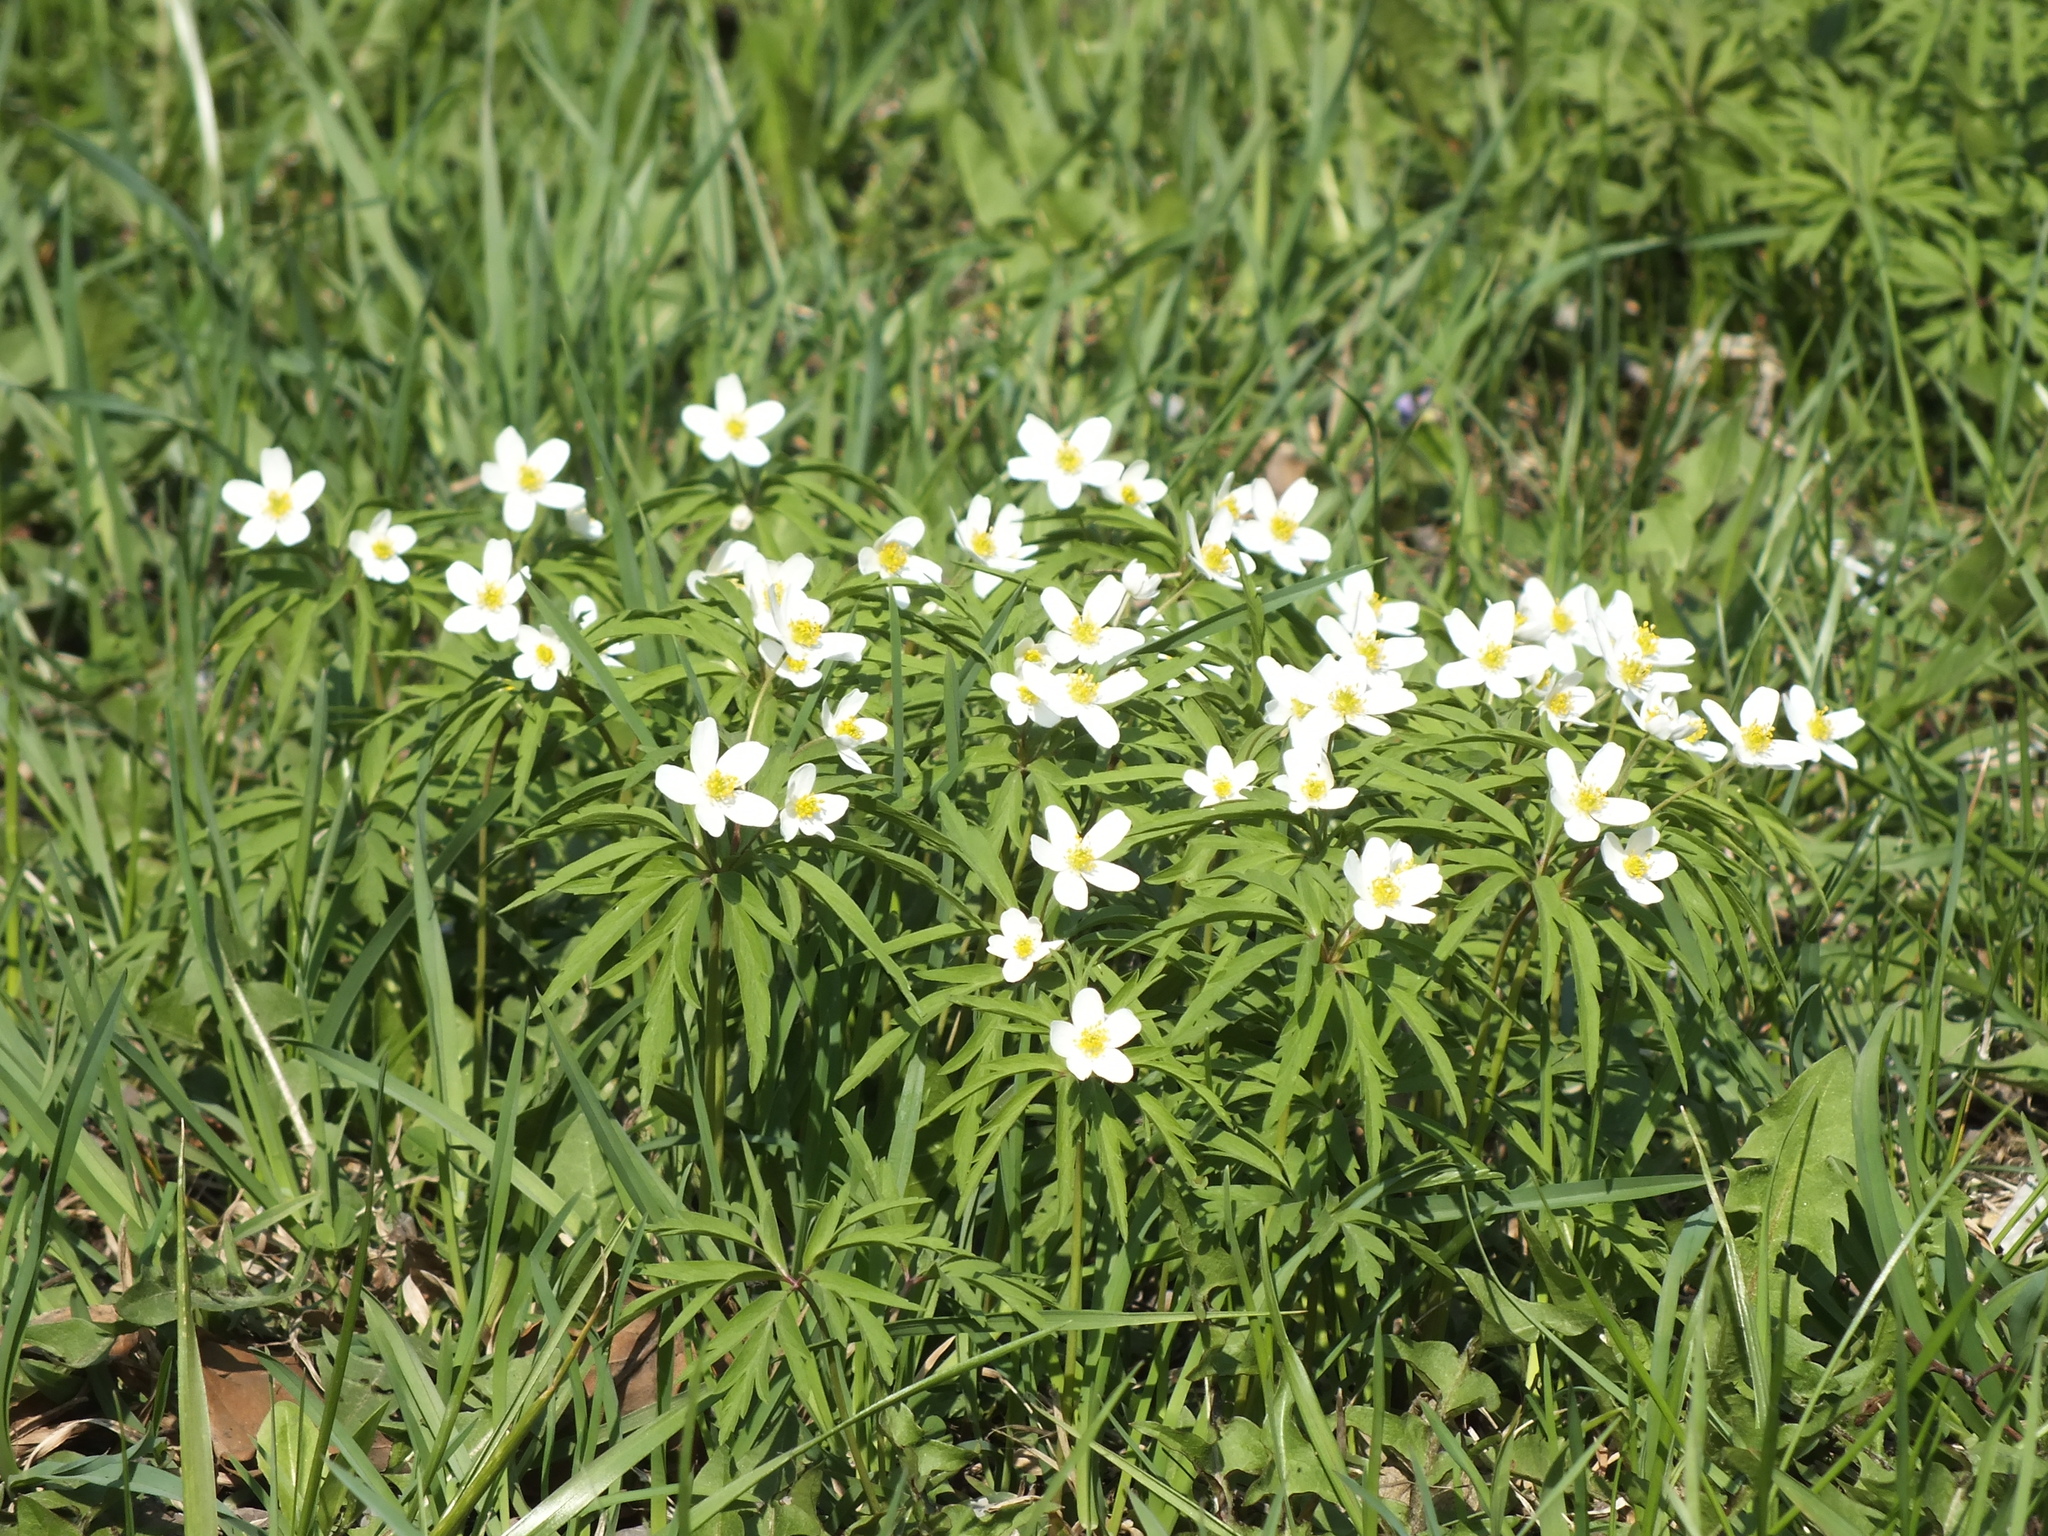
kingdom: Plantae
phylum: Tracheophyta
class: Magnoliopsida
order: Ranunculales
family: Ranunculaceae
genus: Anemone
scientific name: Anemone caerulea
